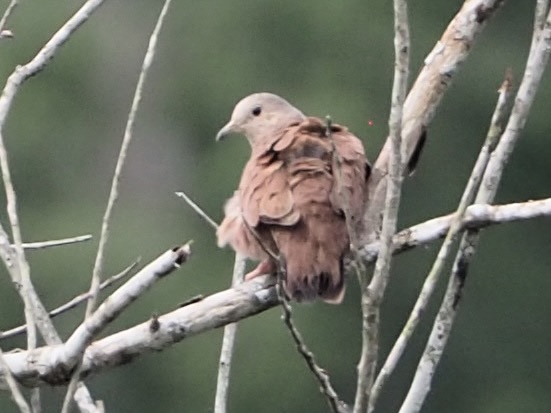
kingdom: Animalia
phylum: Chordata
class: Aves
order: Columbiformes
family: Columbidae
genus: Columbina
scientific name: Columbina talpacoti
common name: Ruddy ground dove
